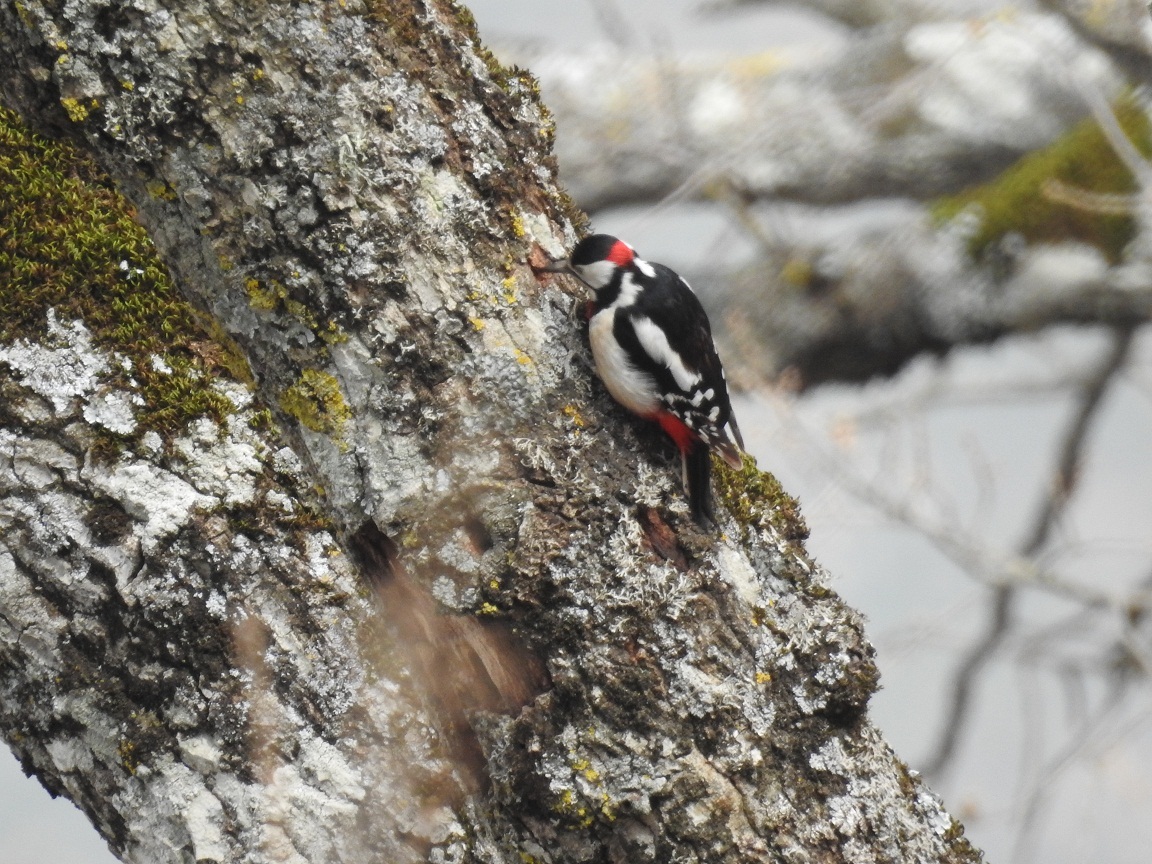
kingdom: Animalia
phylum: Chordata
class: Aves
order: Piciformes
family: Picidae
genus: Dendrocopos
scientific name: Dendrocopos major
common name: Great spotted woodpecker
